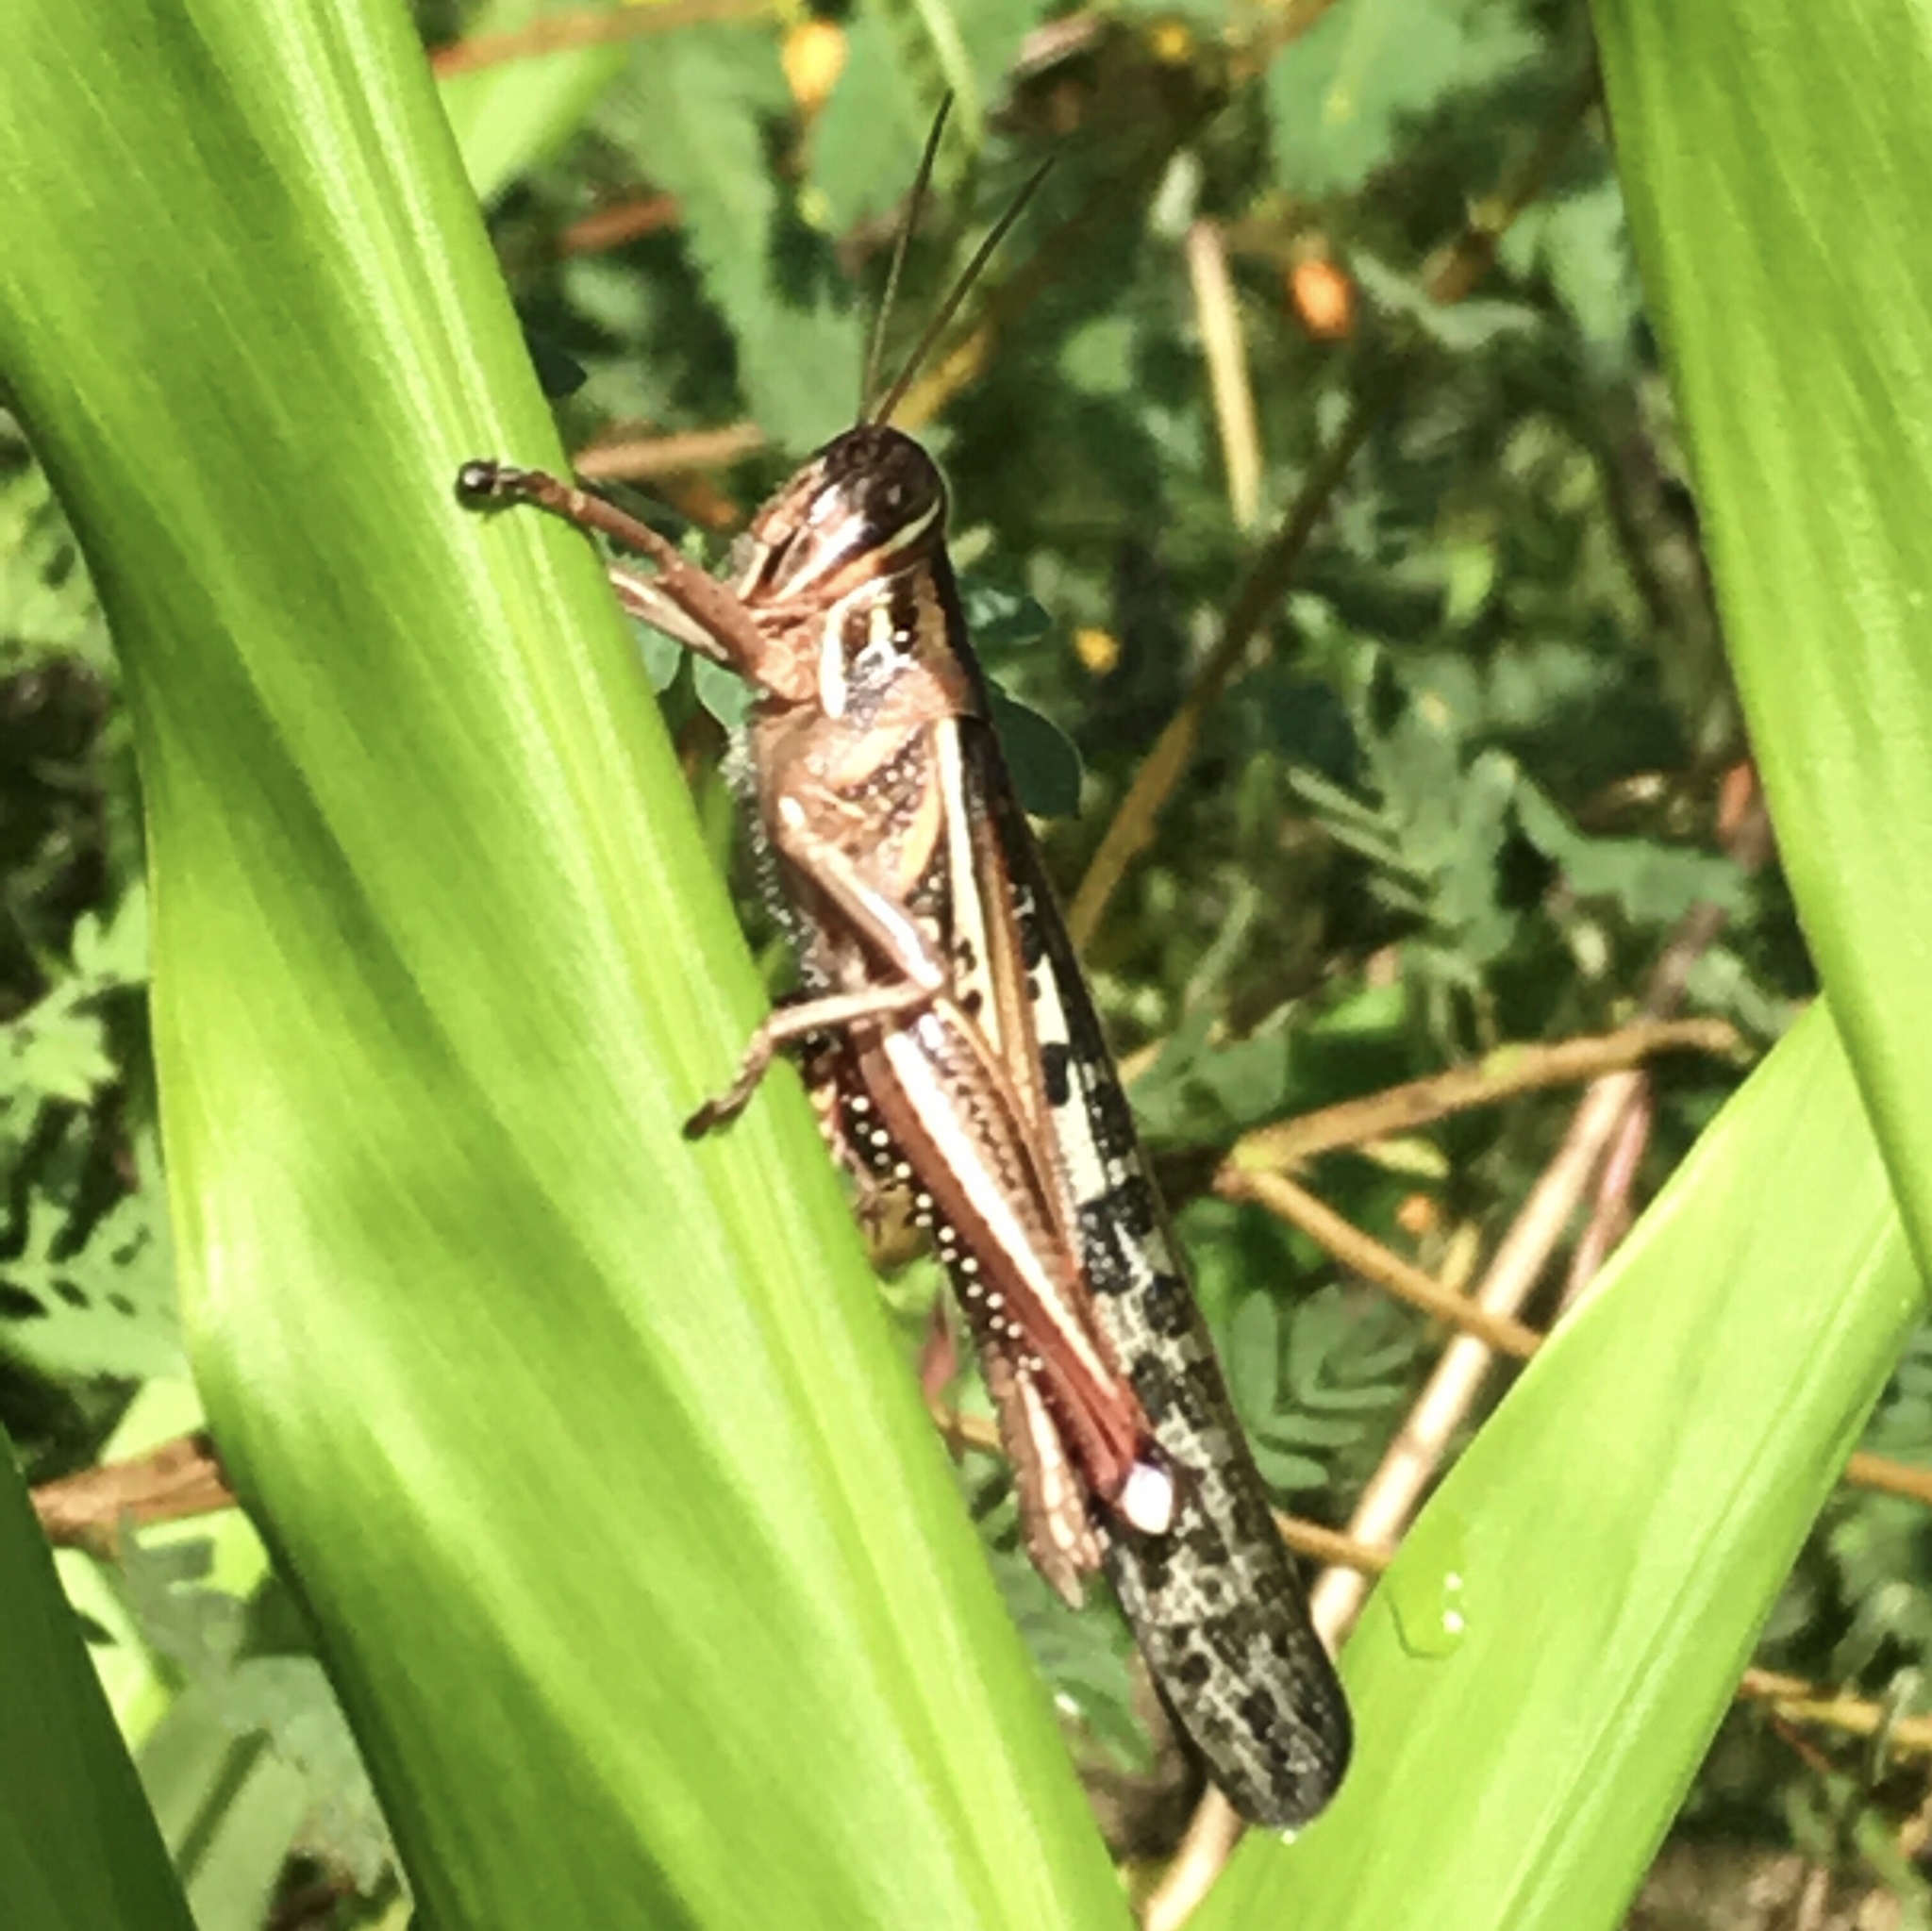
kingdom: Animalia
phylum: Arthropoda
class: Insecta
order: Orthoptera
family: Acrididae
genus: Schistocerca
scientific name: Schistocerca americana
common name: American bird locust
